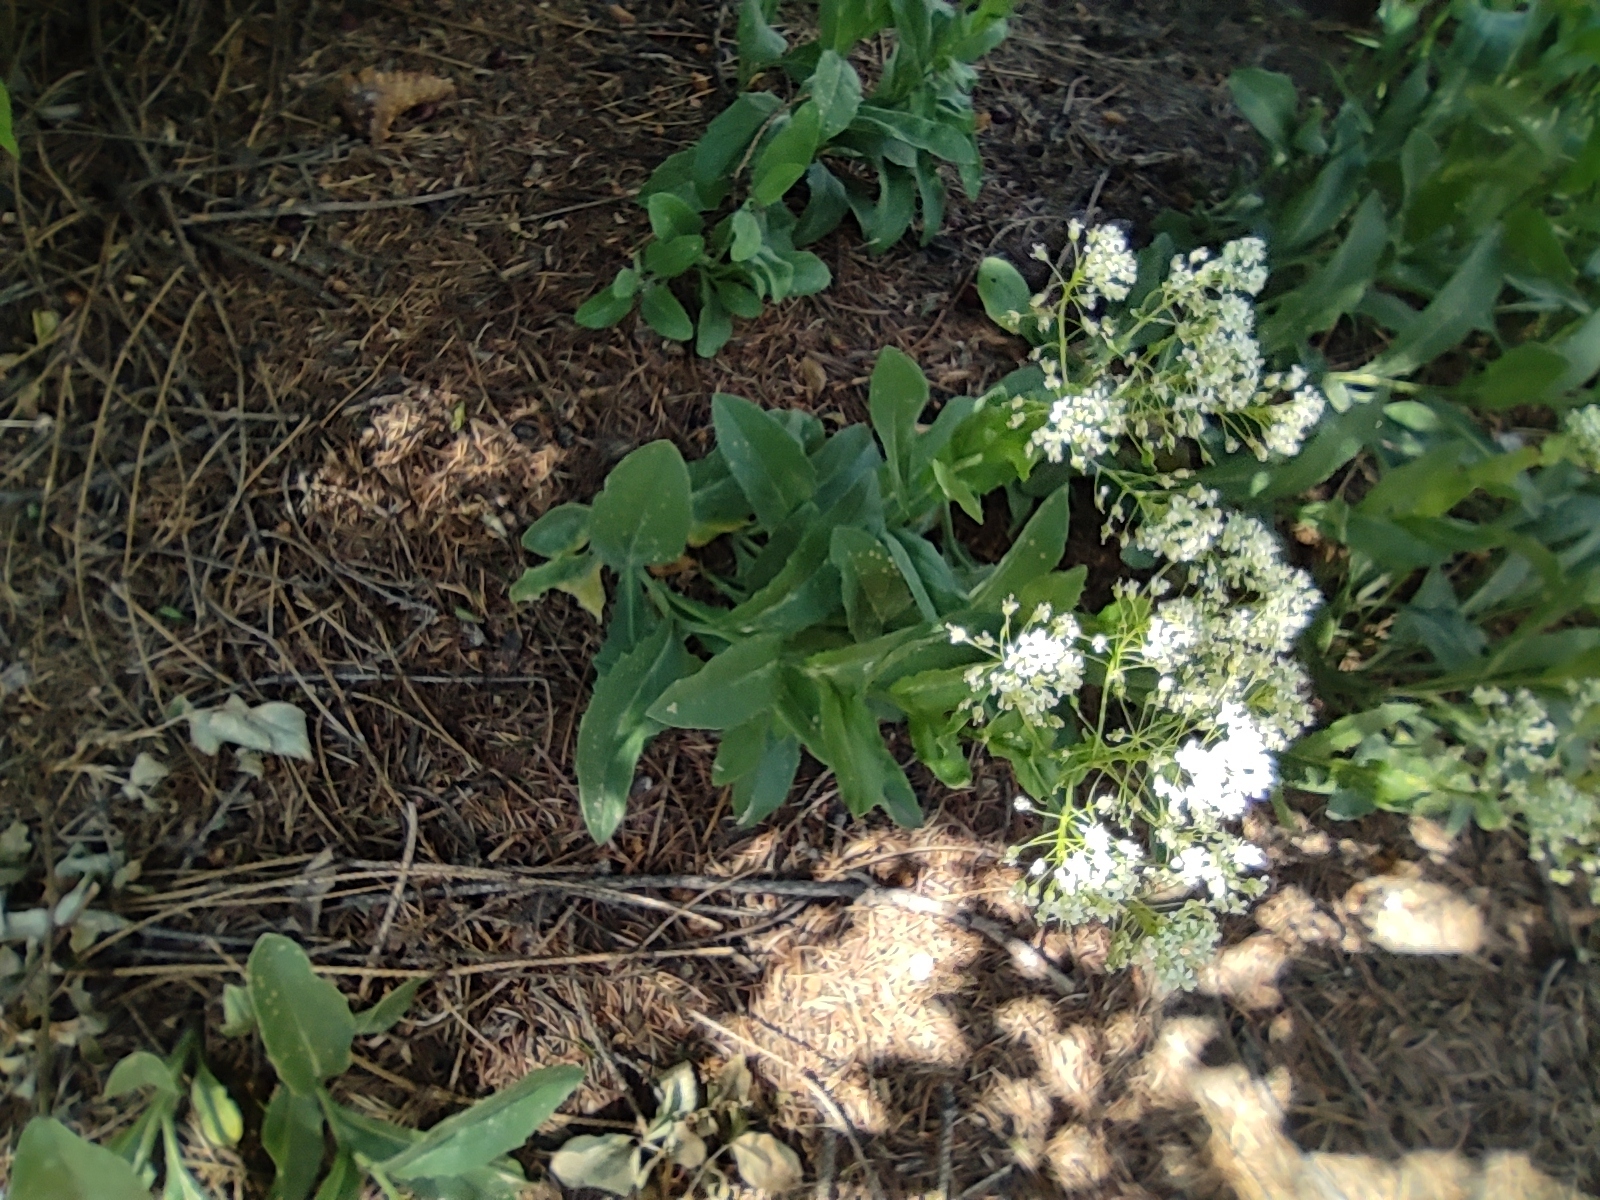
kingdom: Plantae
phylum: Tracheophyta
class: Magnoliopsida
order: Brassicales
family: Brassicaceae
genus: Lepidium
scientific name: Lepidium draba
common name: Hoary cress
